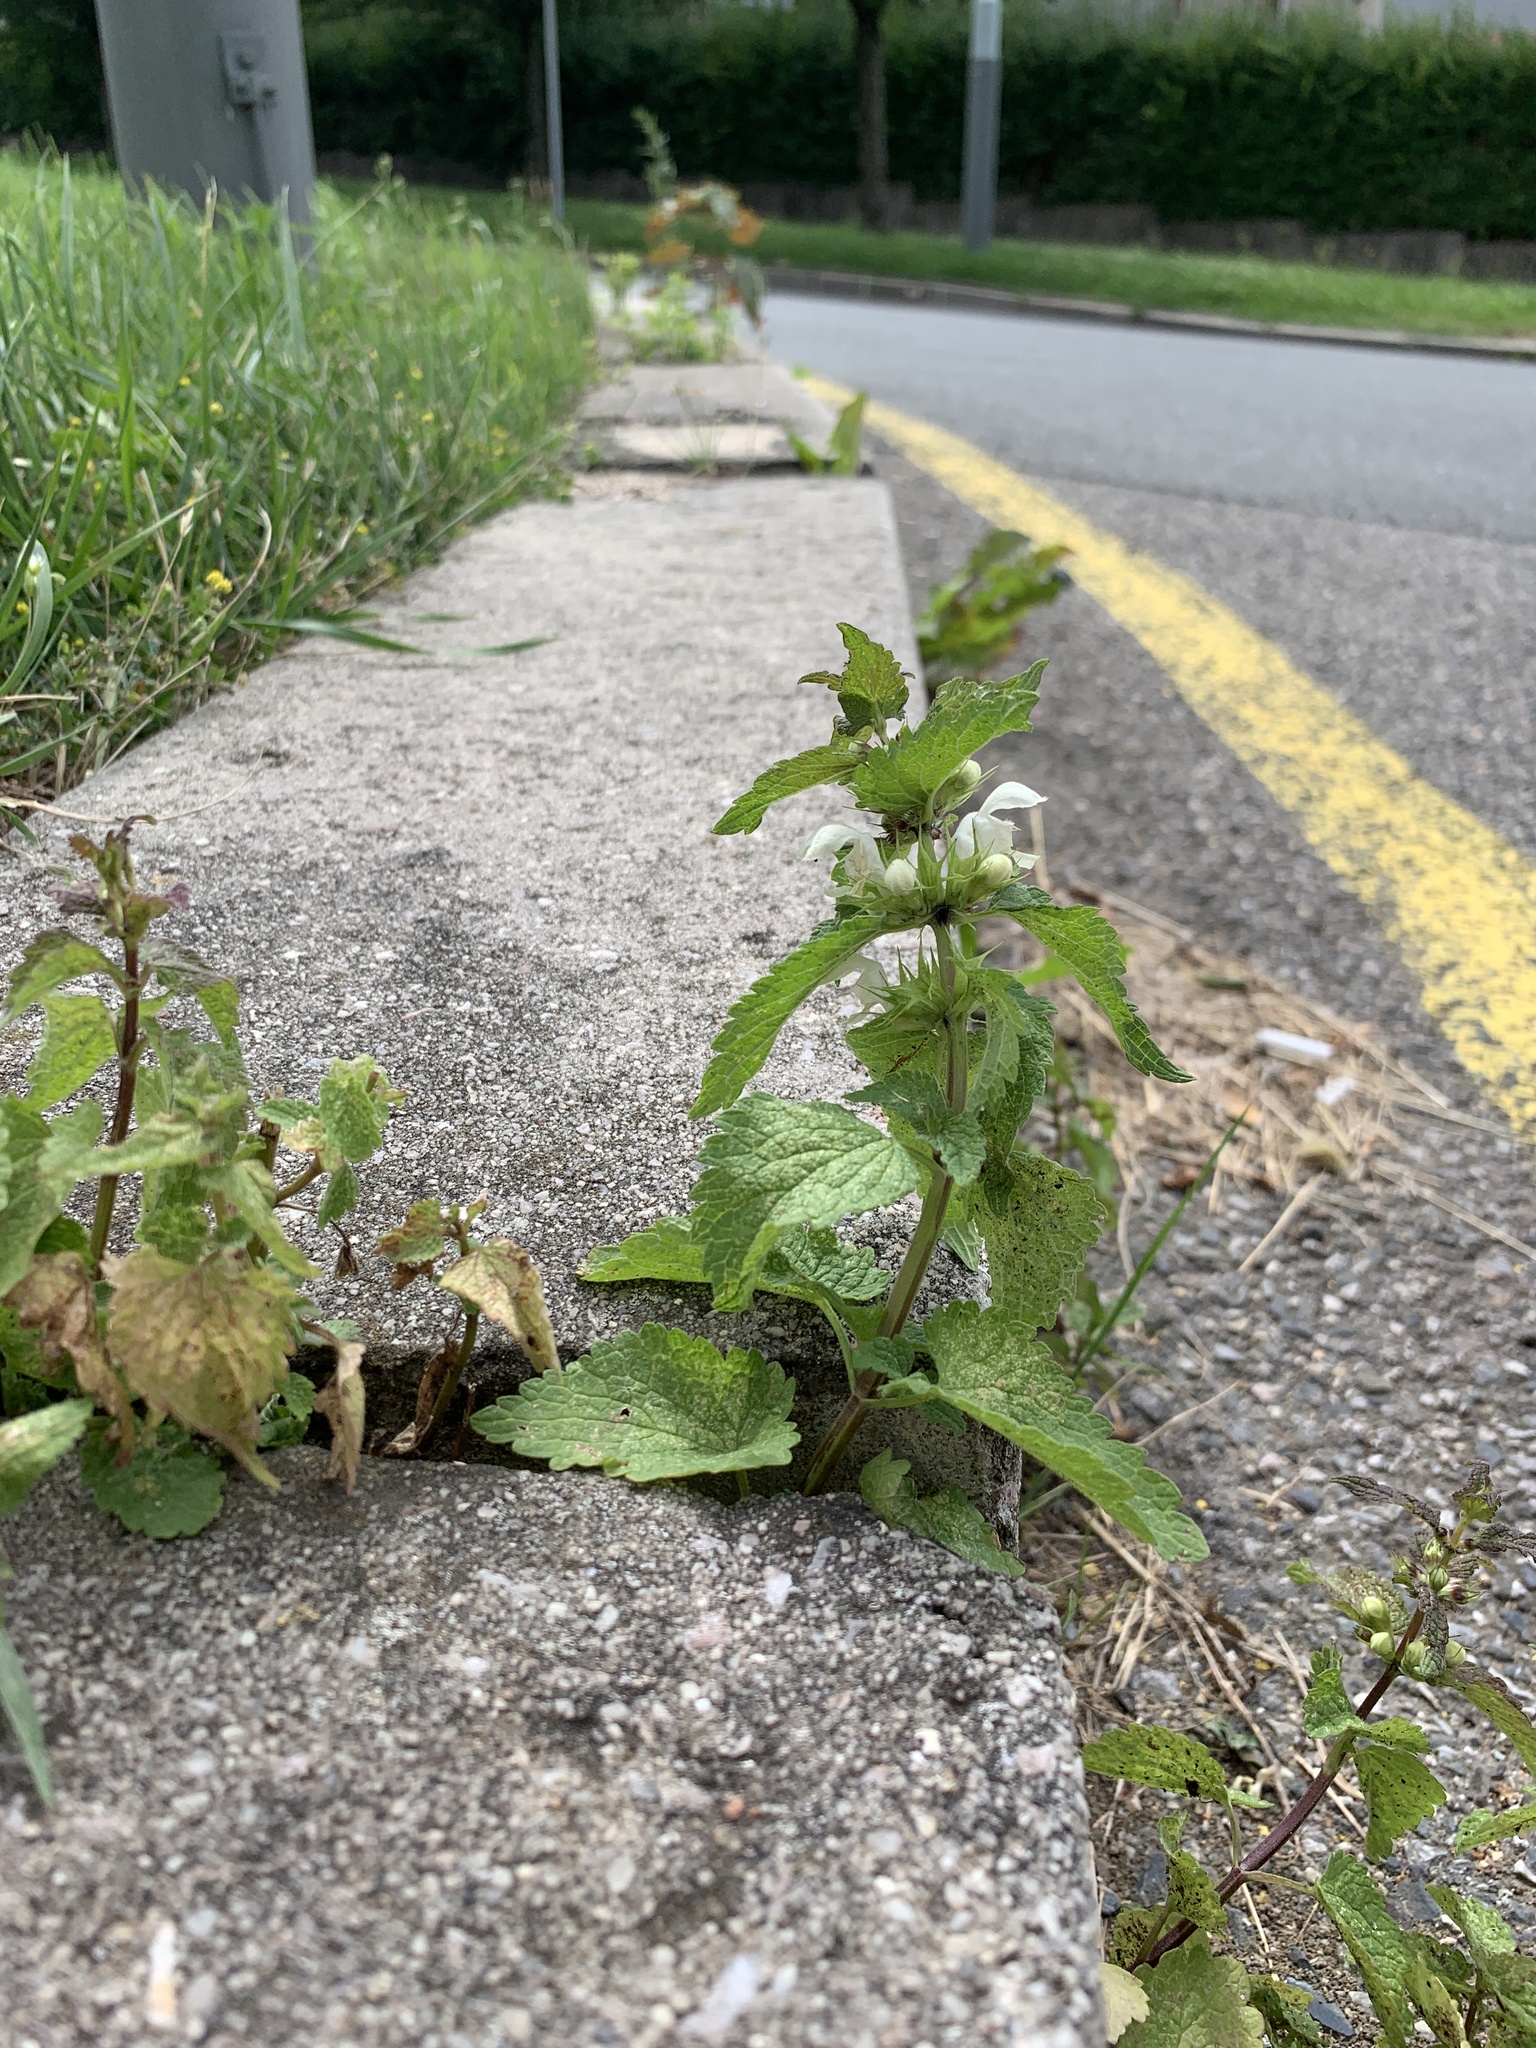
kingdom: Plantae
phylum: Tracheophyta
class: Magnoliopsida
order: Lamiales
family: Lamiaceae
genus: Lamium
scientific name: Lamium album
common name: White dead-nettle
